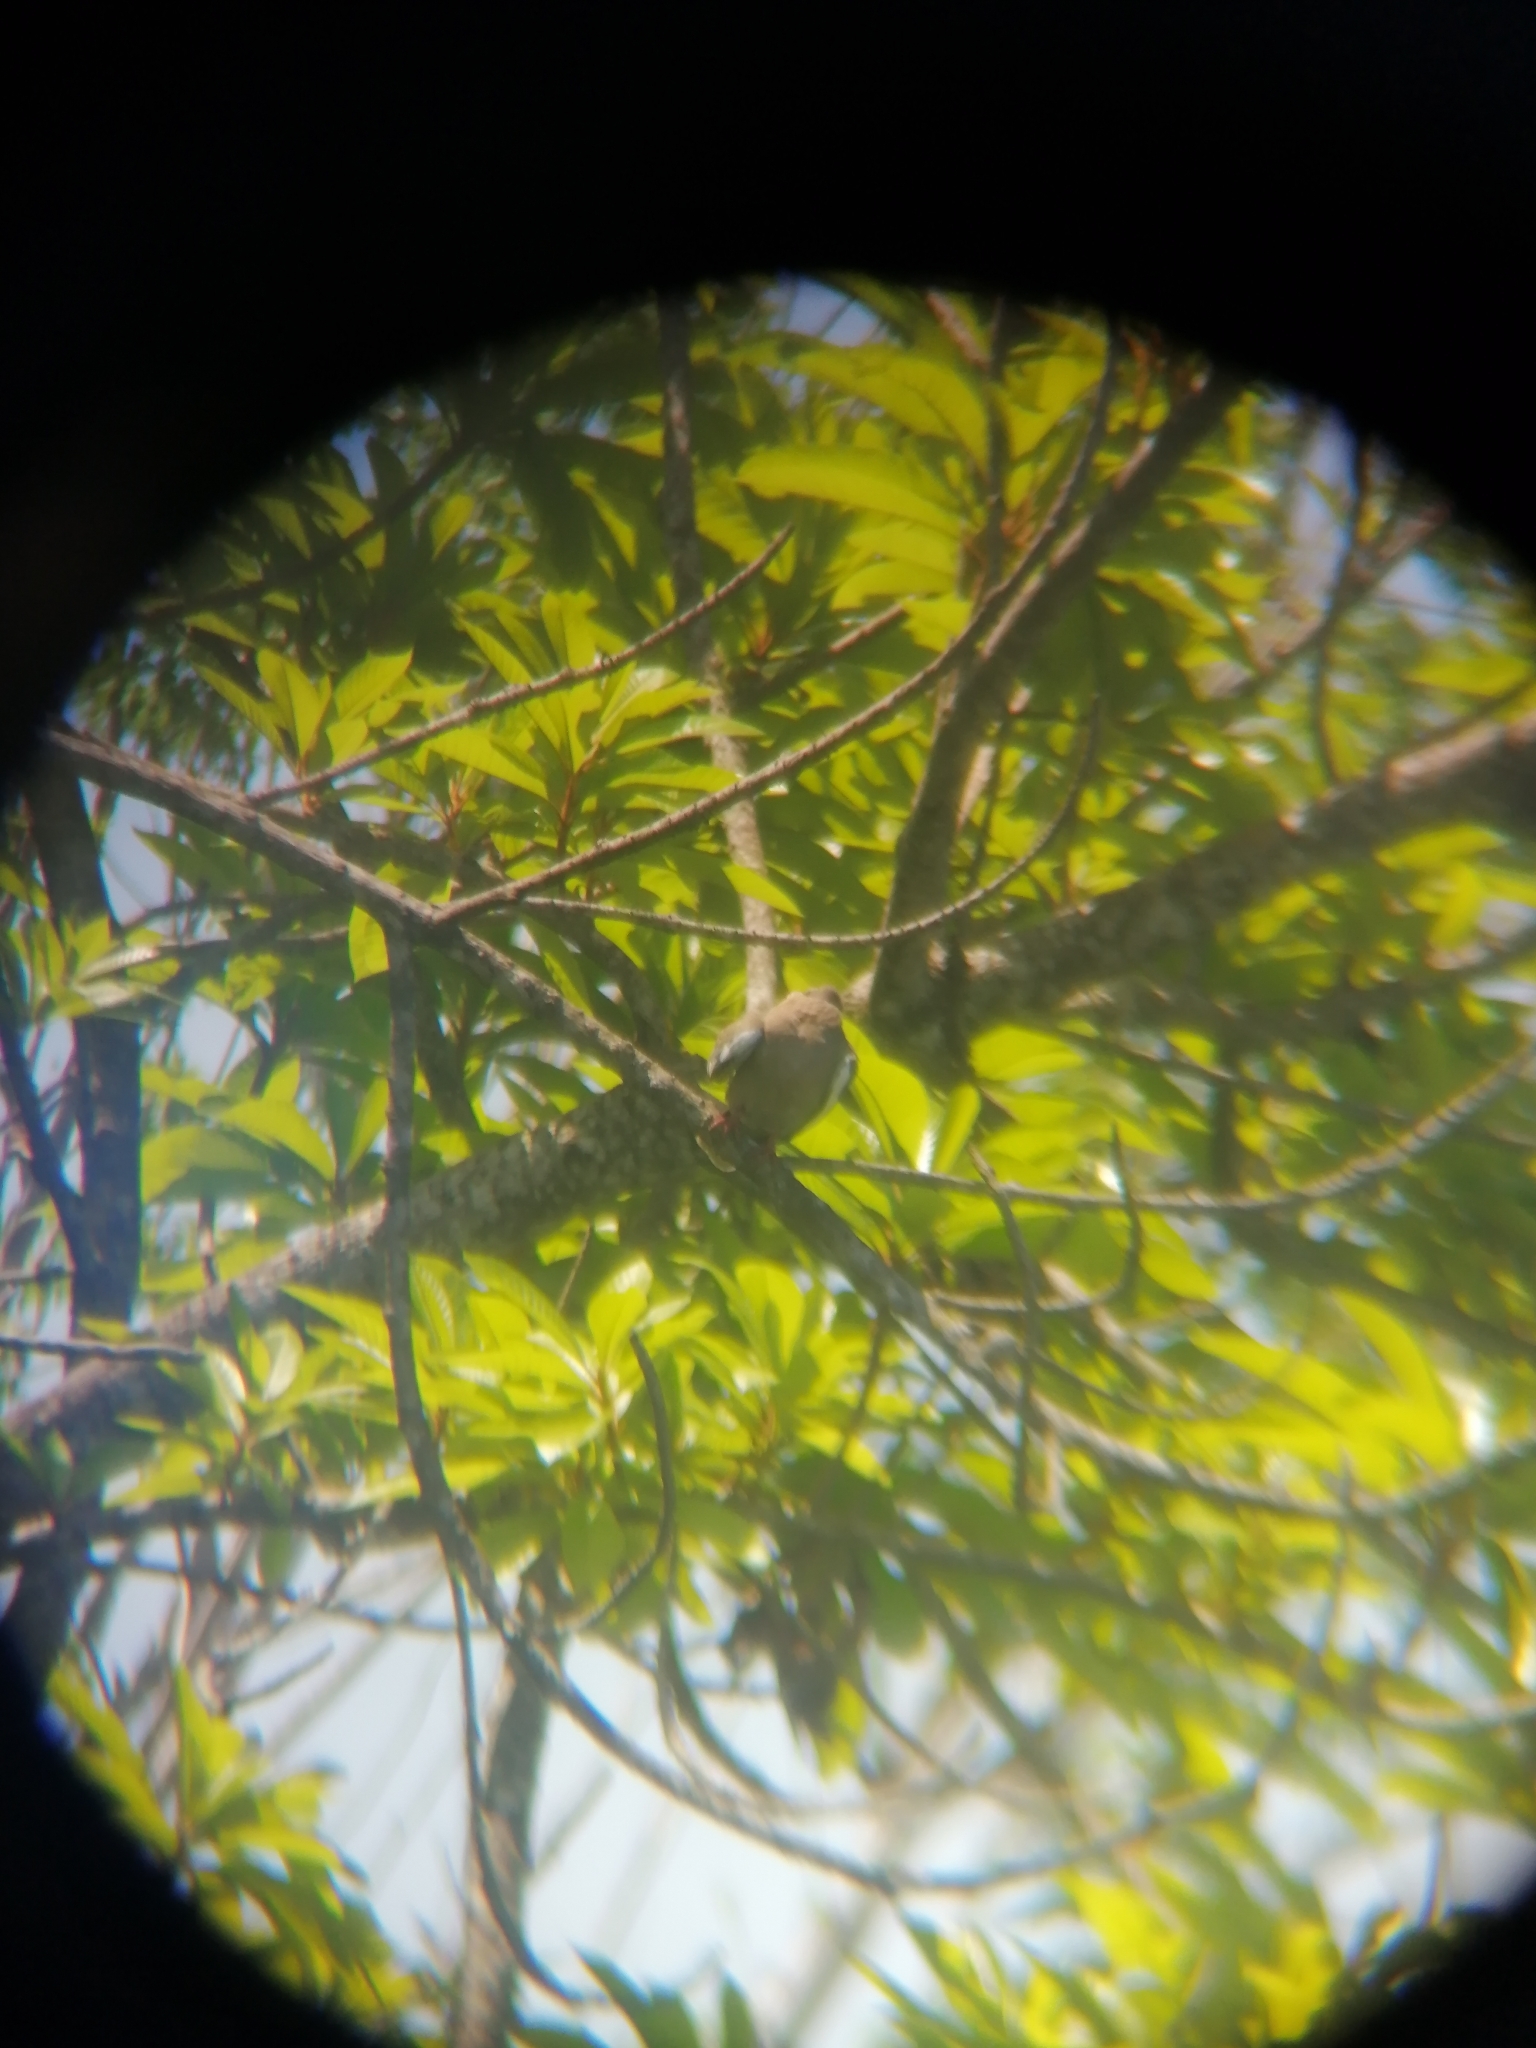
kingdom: Animalia
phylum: Chordata
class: Aves
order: Columbiformes
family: Columbidae
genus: Zenaida
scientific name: Zenaida asiatica
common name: White-winged dove
